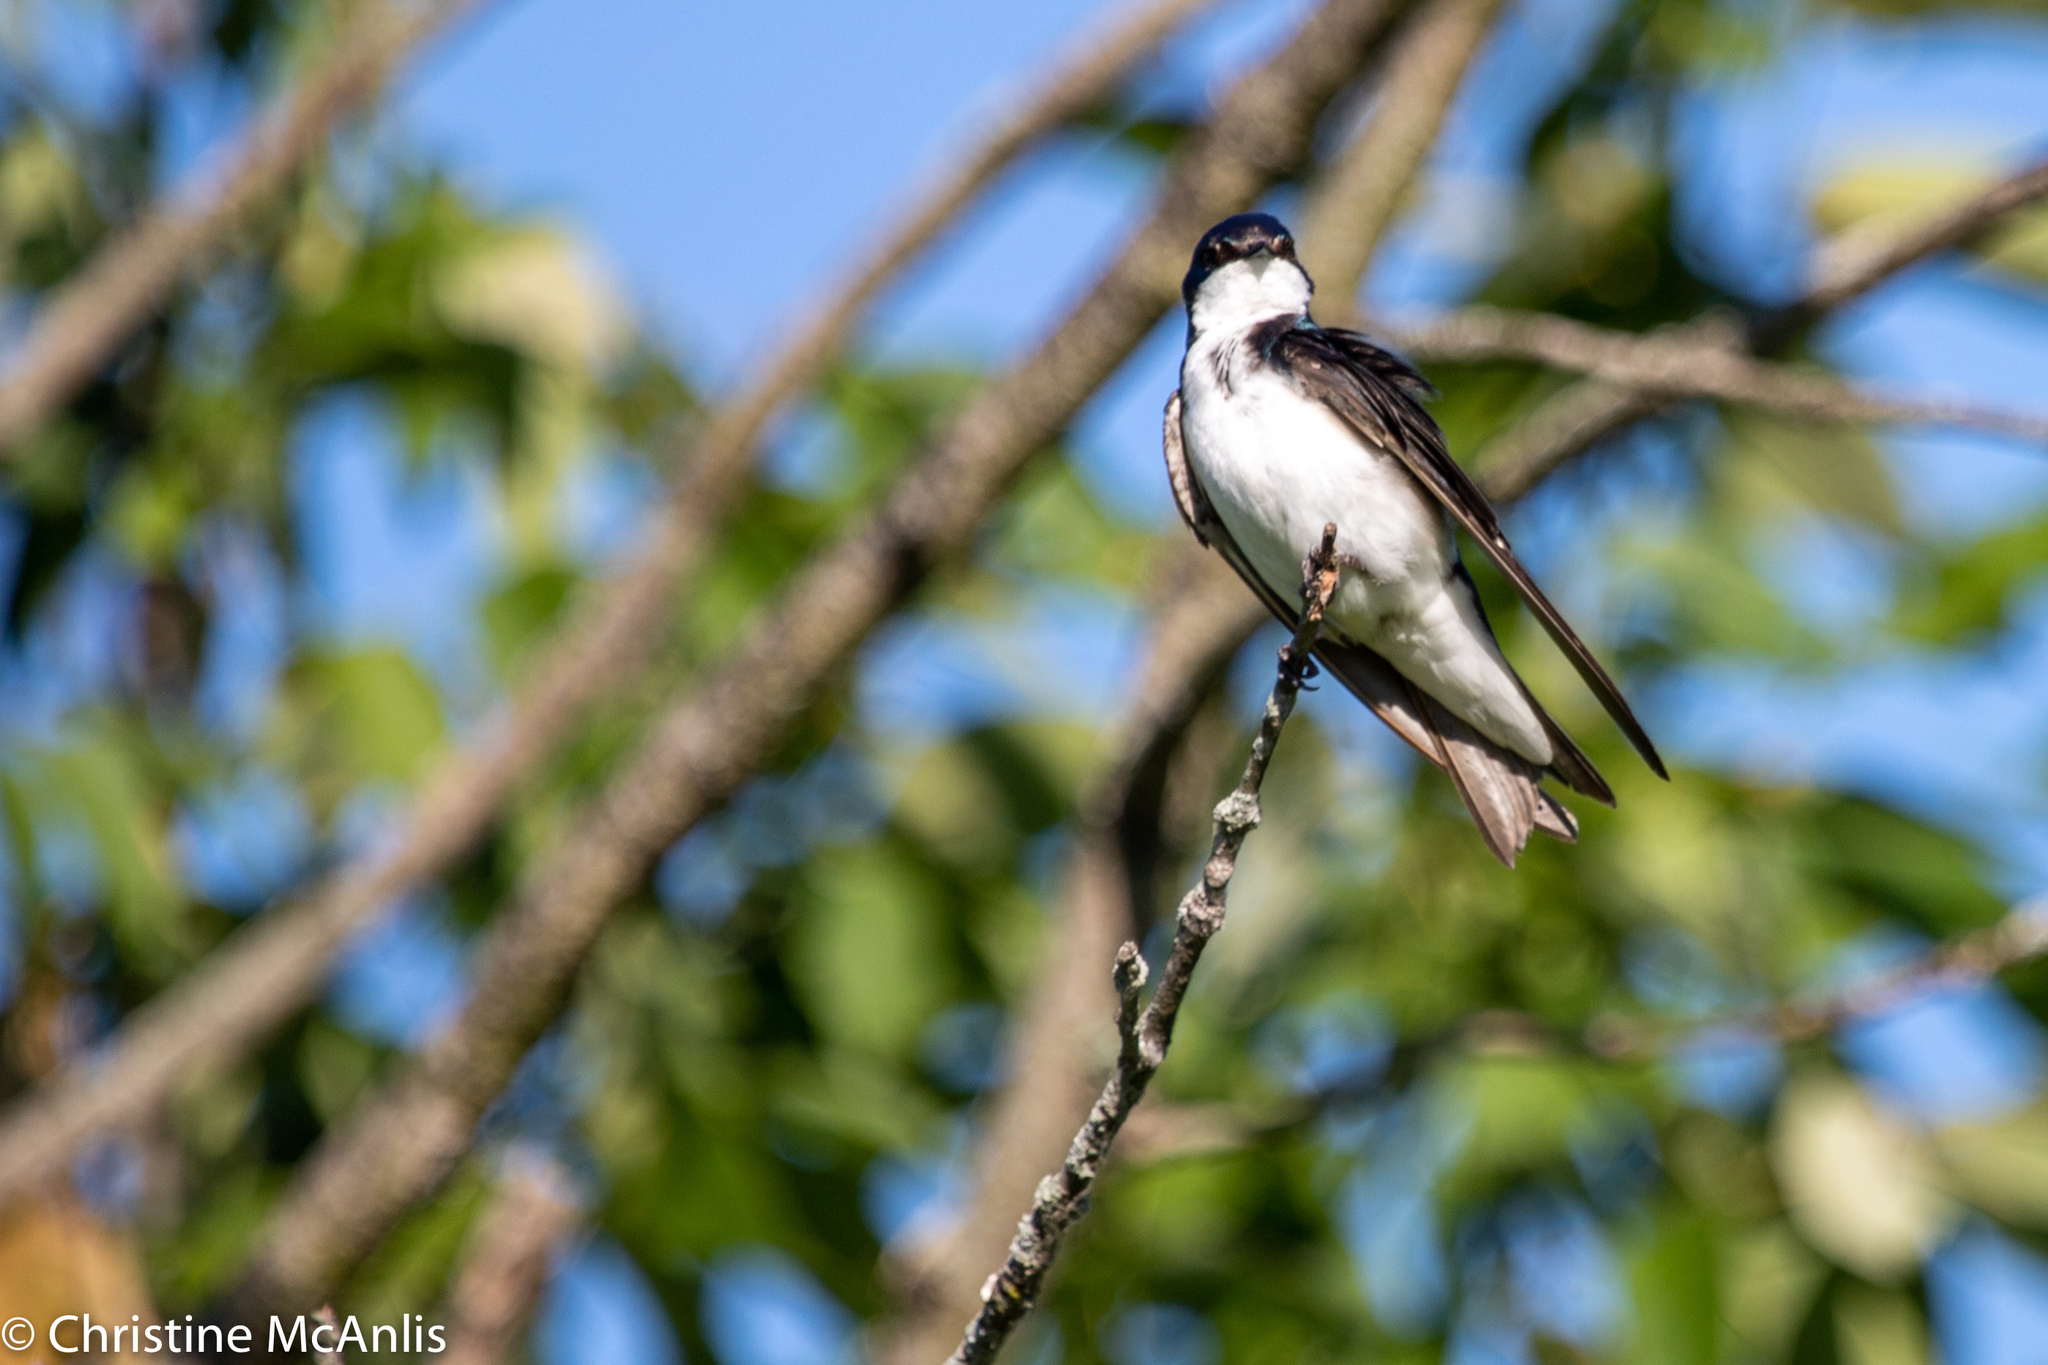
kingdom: Animalia
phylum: Chordata
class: Aves
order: Passeriformes
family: Hirundinidae
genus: Tachycineta
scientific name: Tachycineta bicolor
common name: Tree swallow
